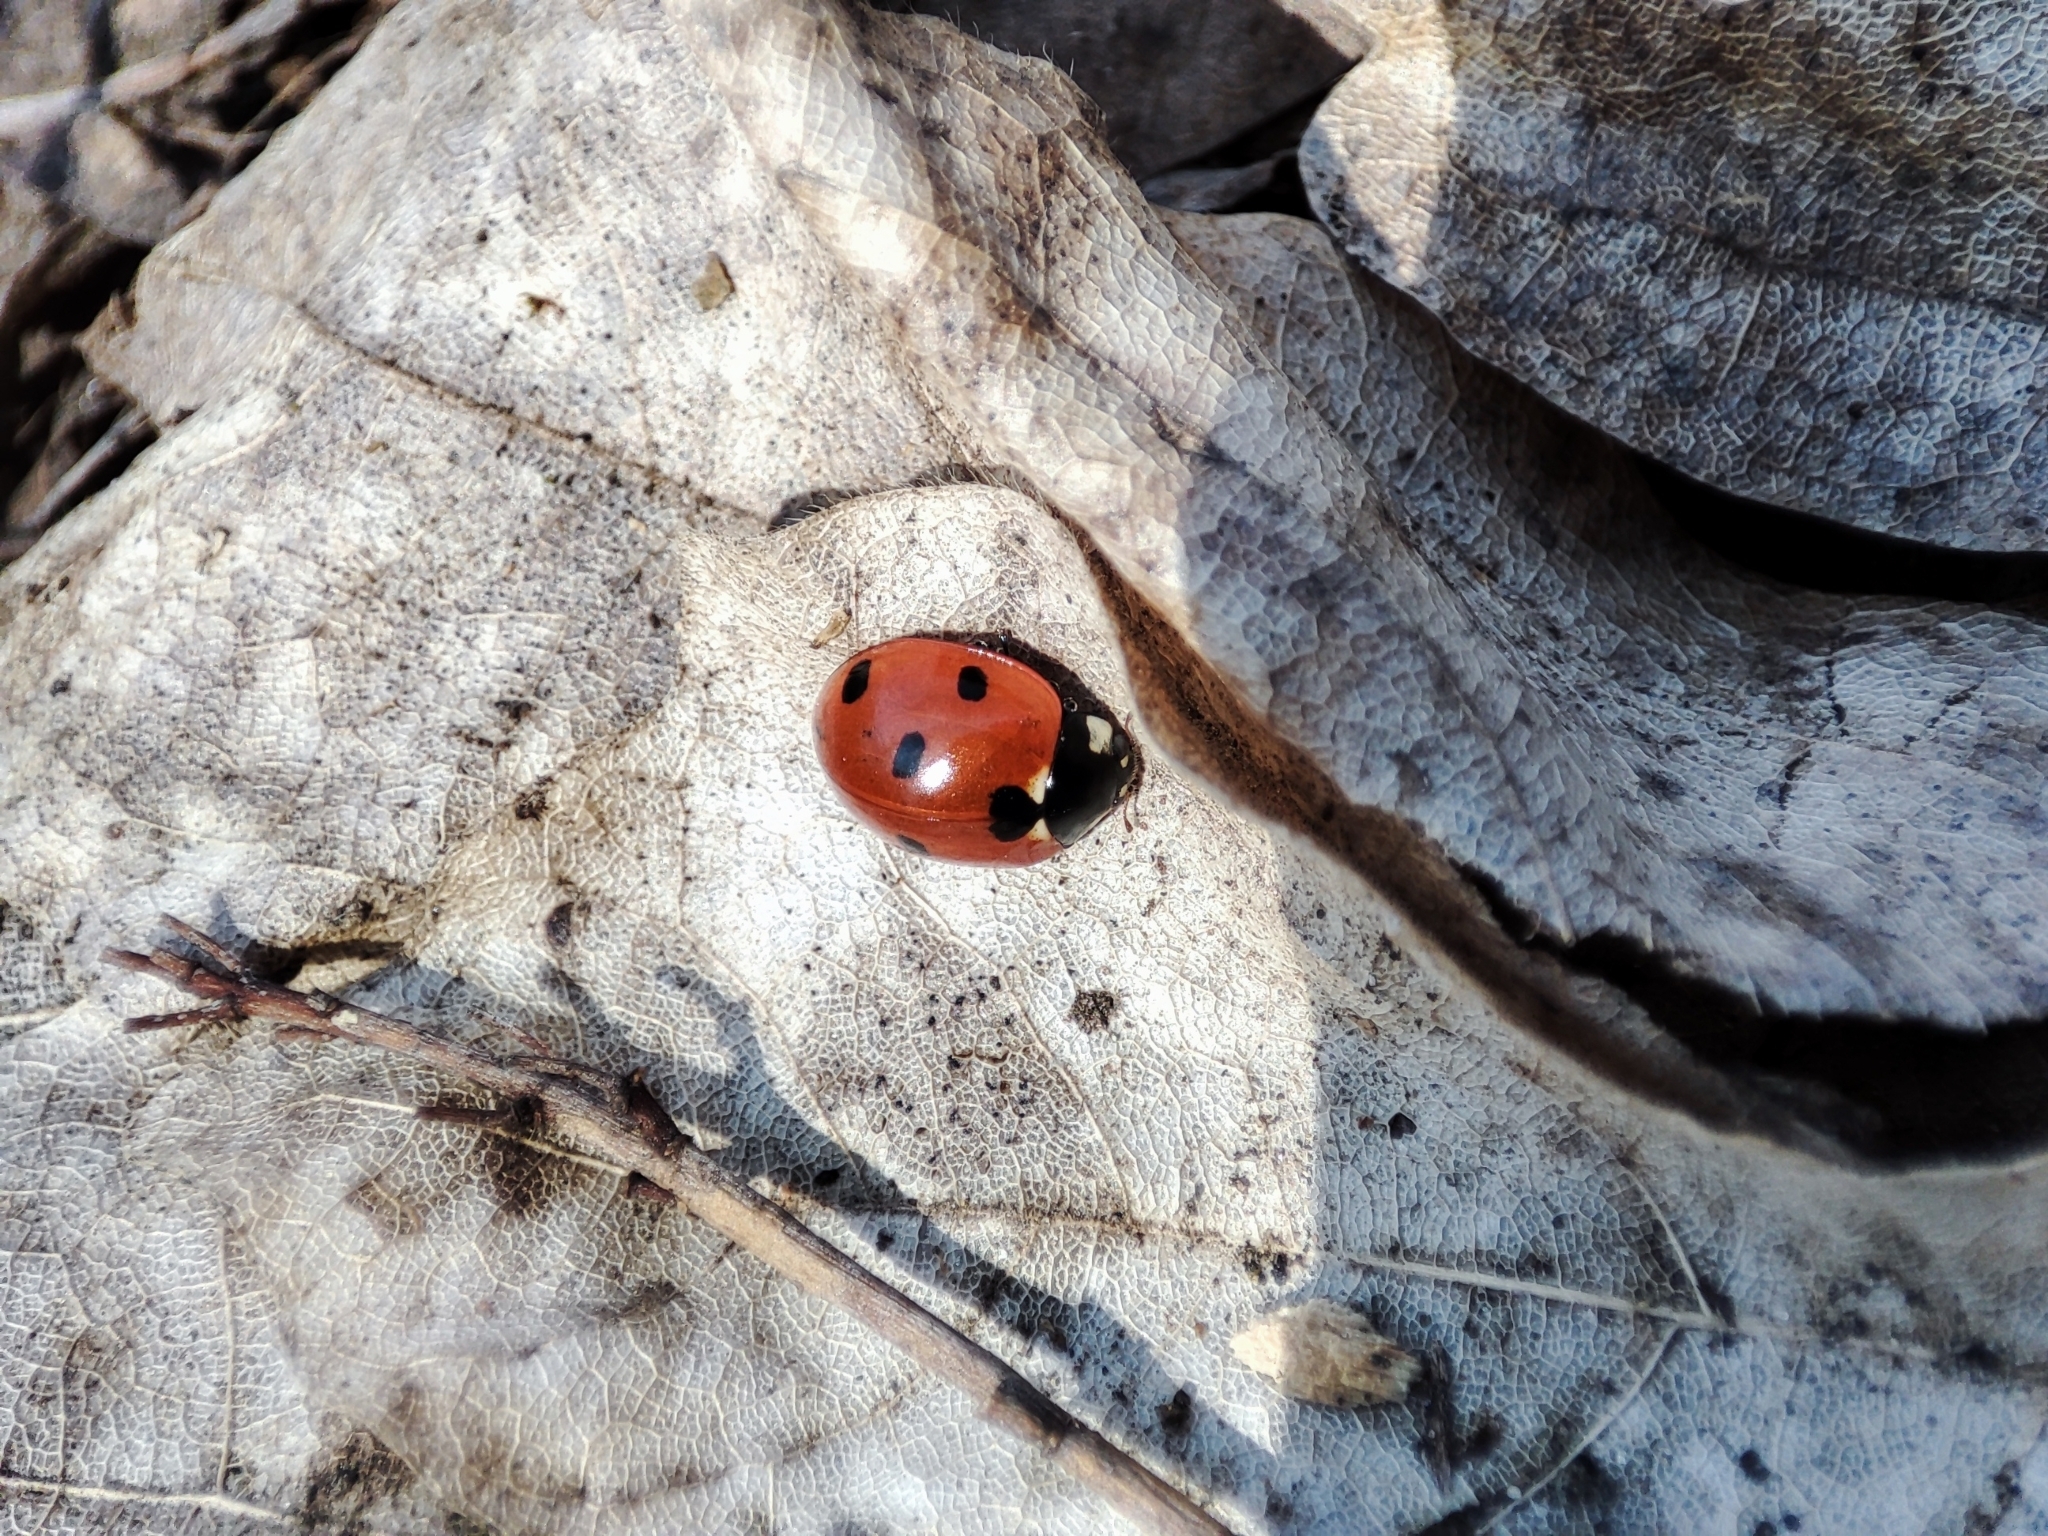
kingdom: Animalia
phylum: Arthropoda
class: Insecta
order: Coleoptera
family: Coccinellidae
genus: Coccinella
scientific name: Coccinella septempunctata
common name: Sevenspotted lady beetle
